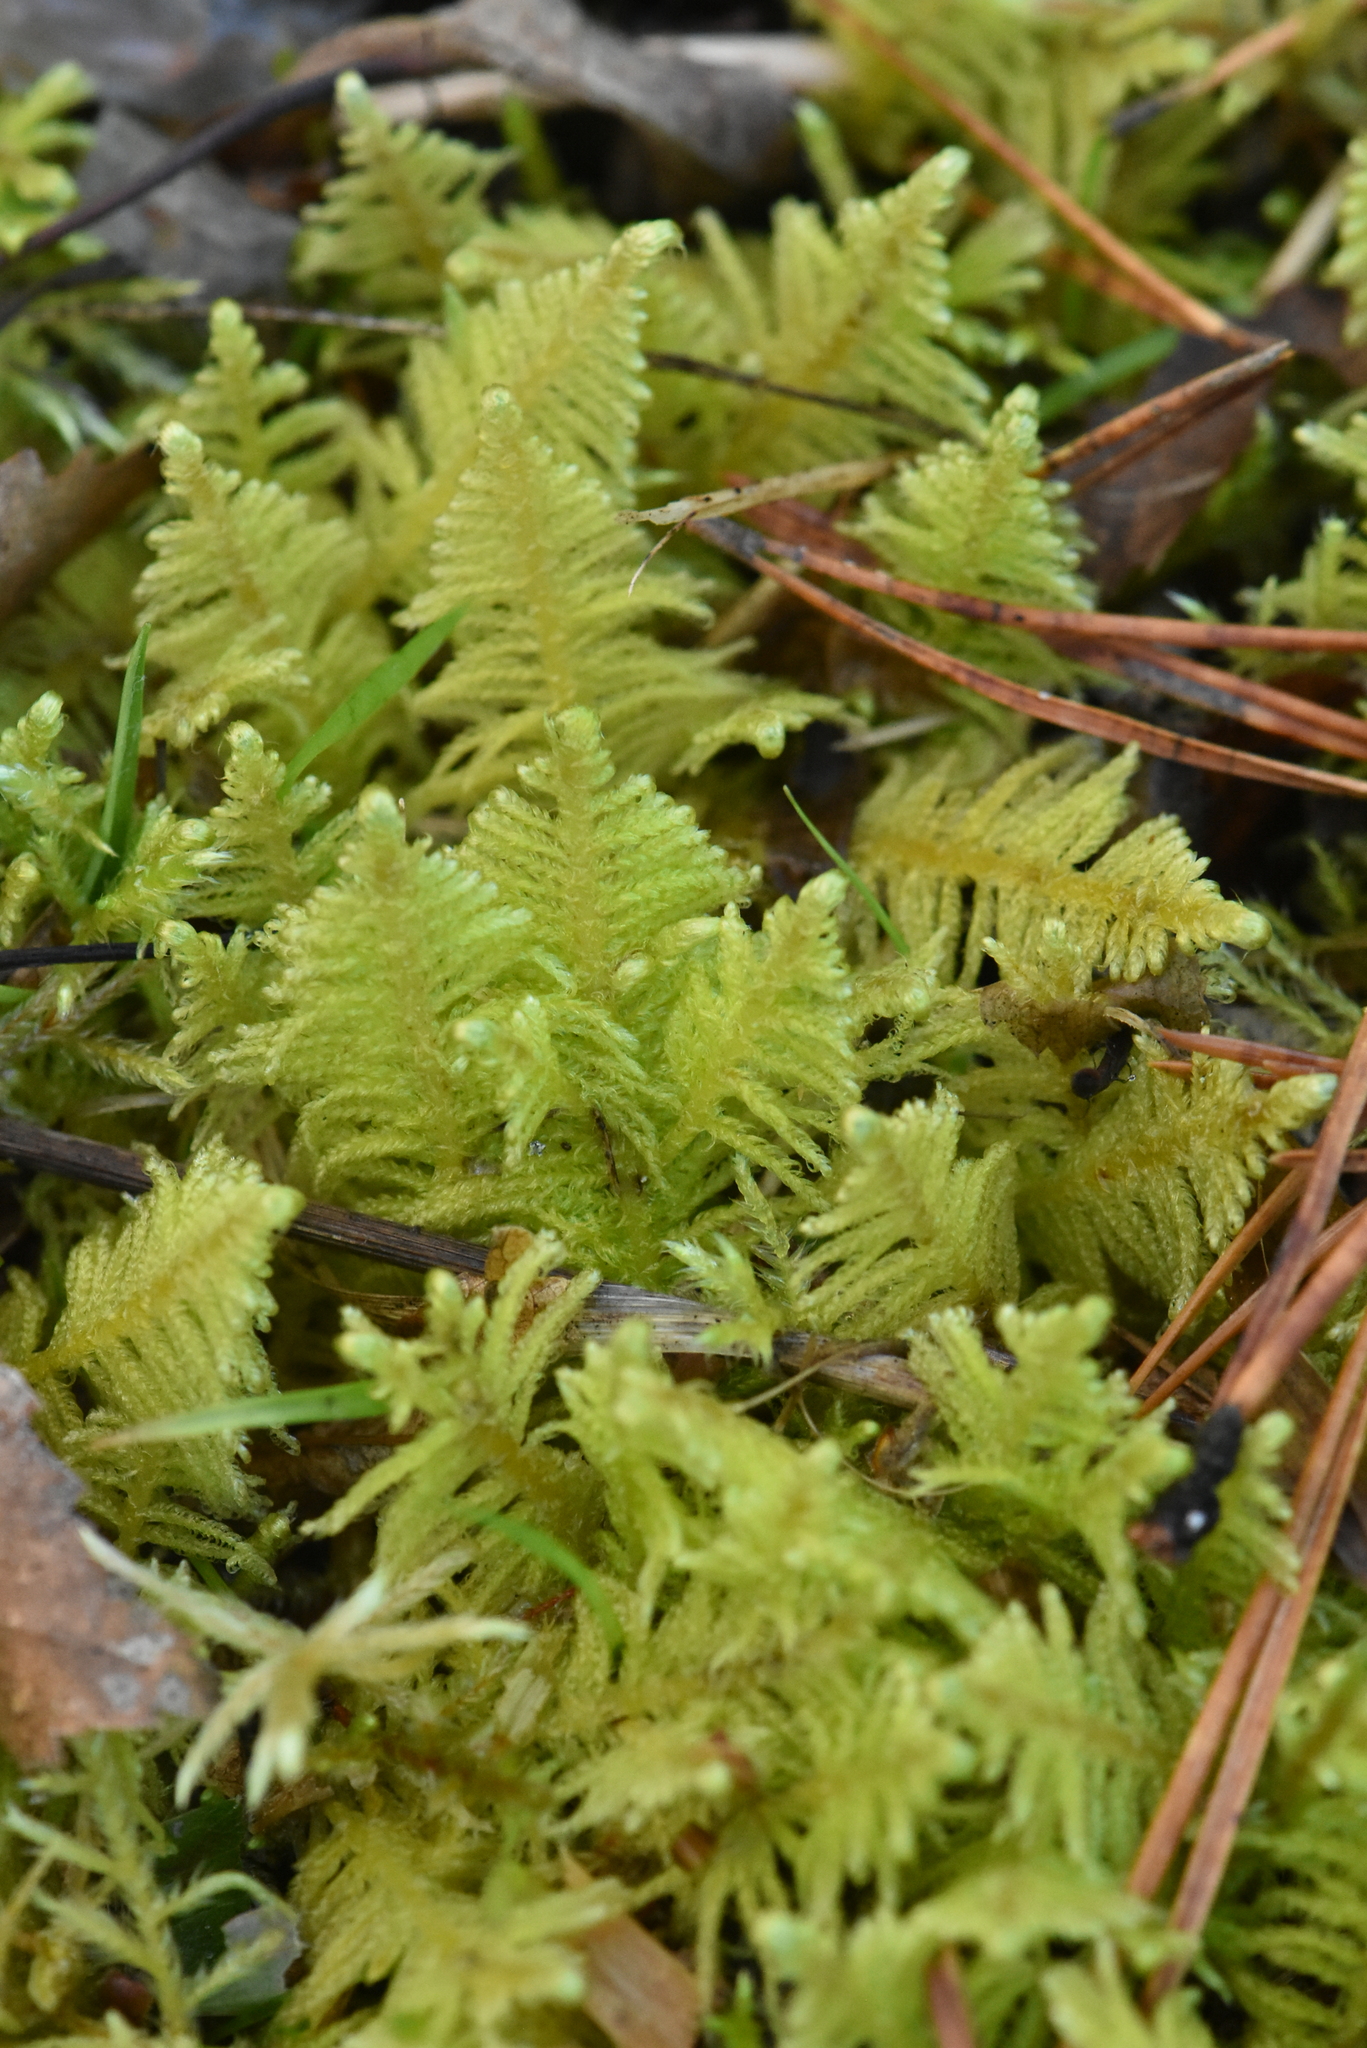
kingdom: Plantae
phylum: Bryophyta
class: Bryopsida
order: Hypnales
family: Pylaisiaceae
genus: Ptilium
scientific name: Ptilium crista-castrensis
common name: Knight's plume moss
